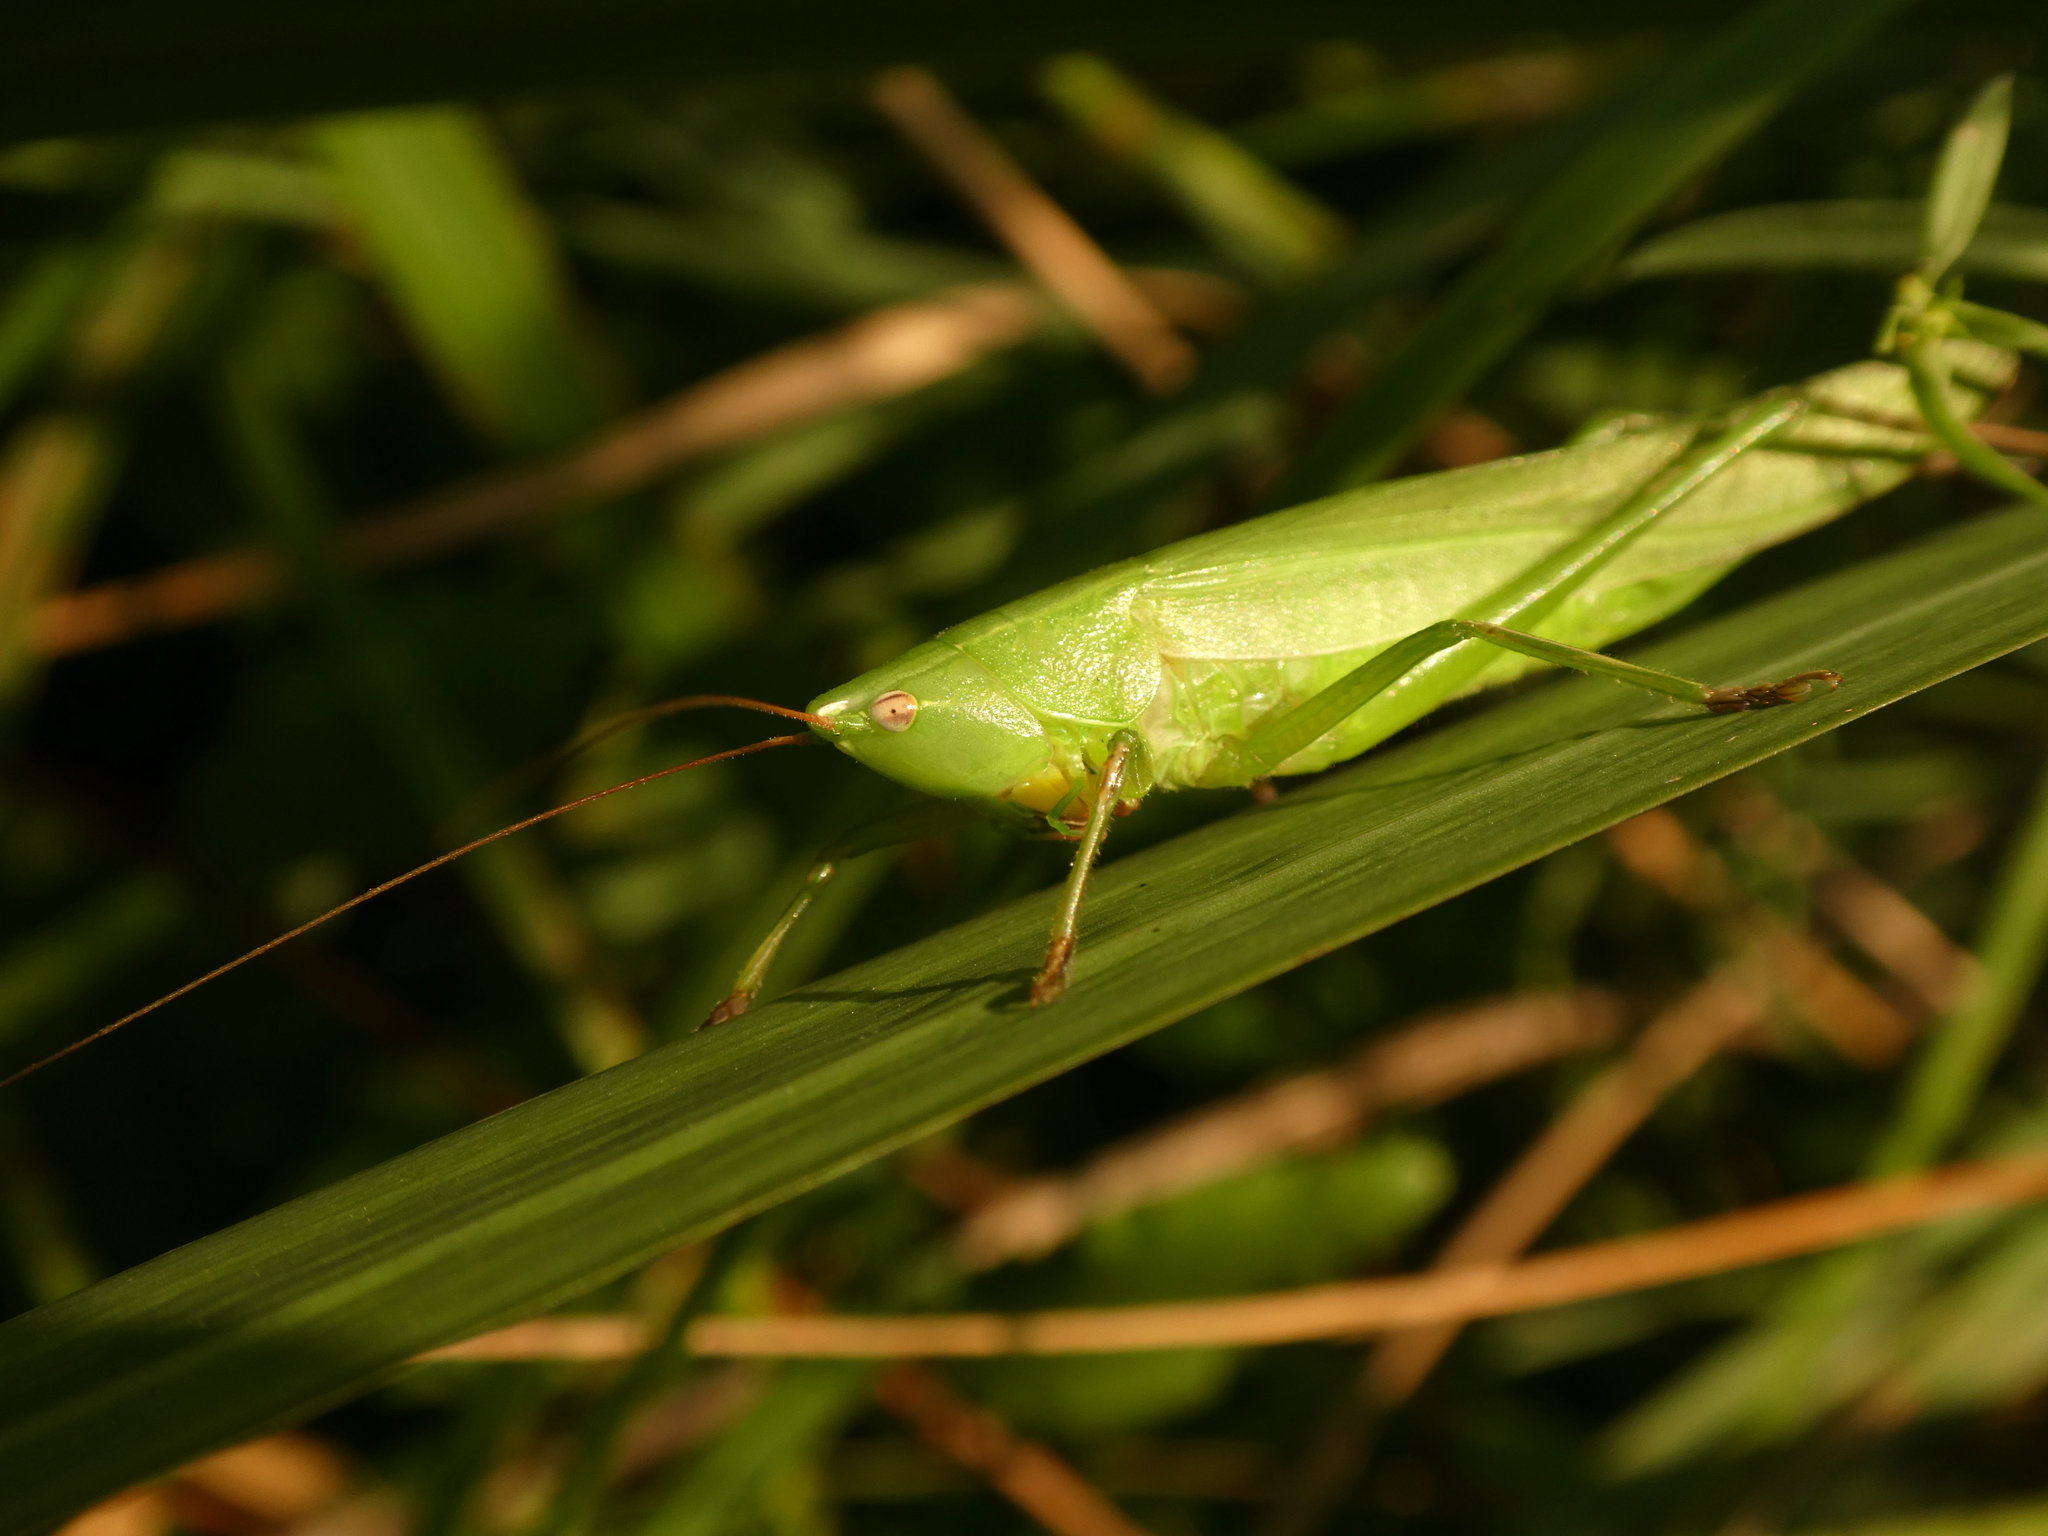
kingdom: Animalia
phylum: Arthropoda
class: Insecta
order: Orthoptera
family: Tettigoniidae
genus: Ruspolia
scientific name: Ruspolia nitidula
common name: Large conehead
